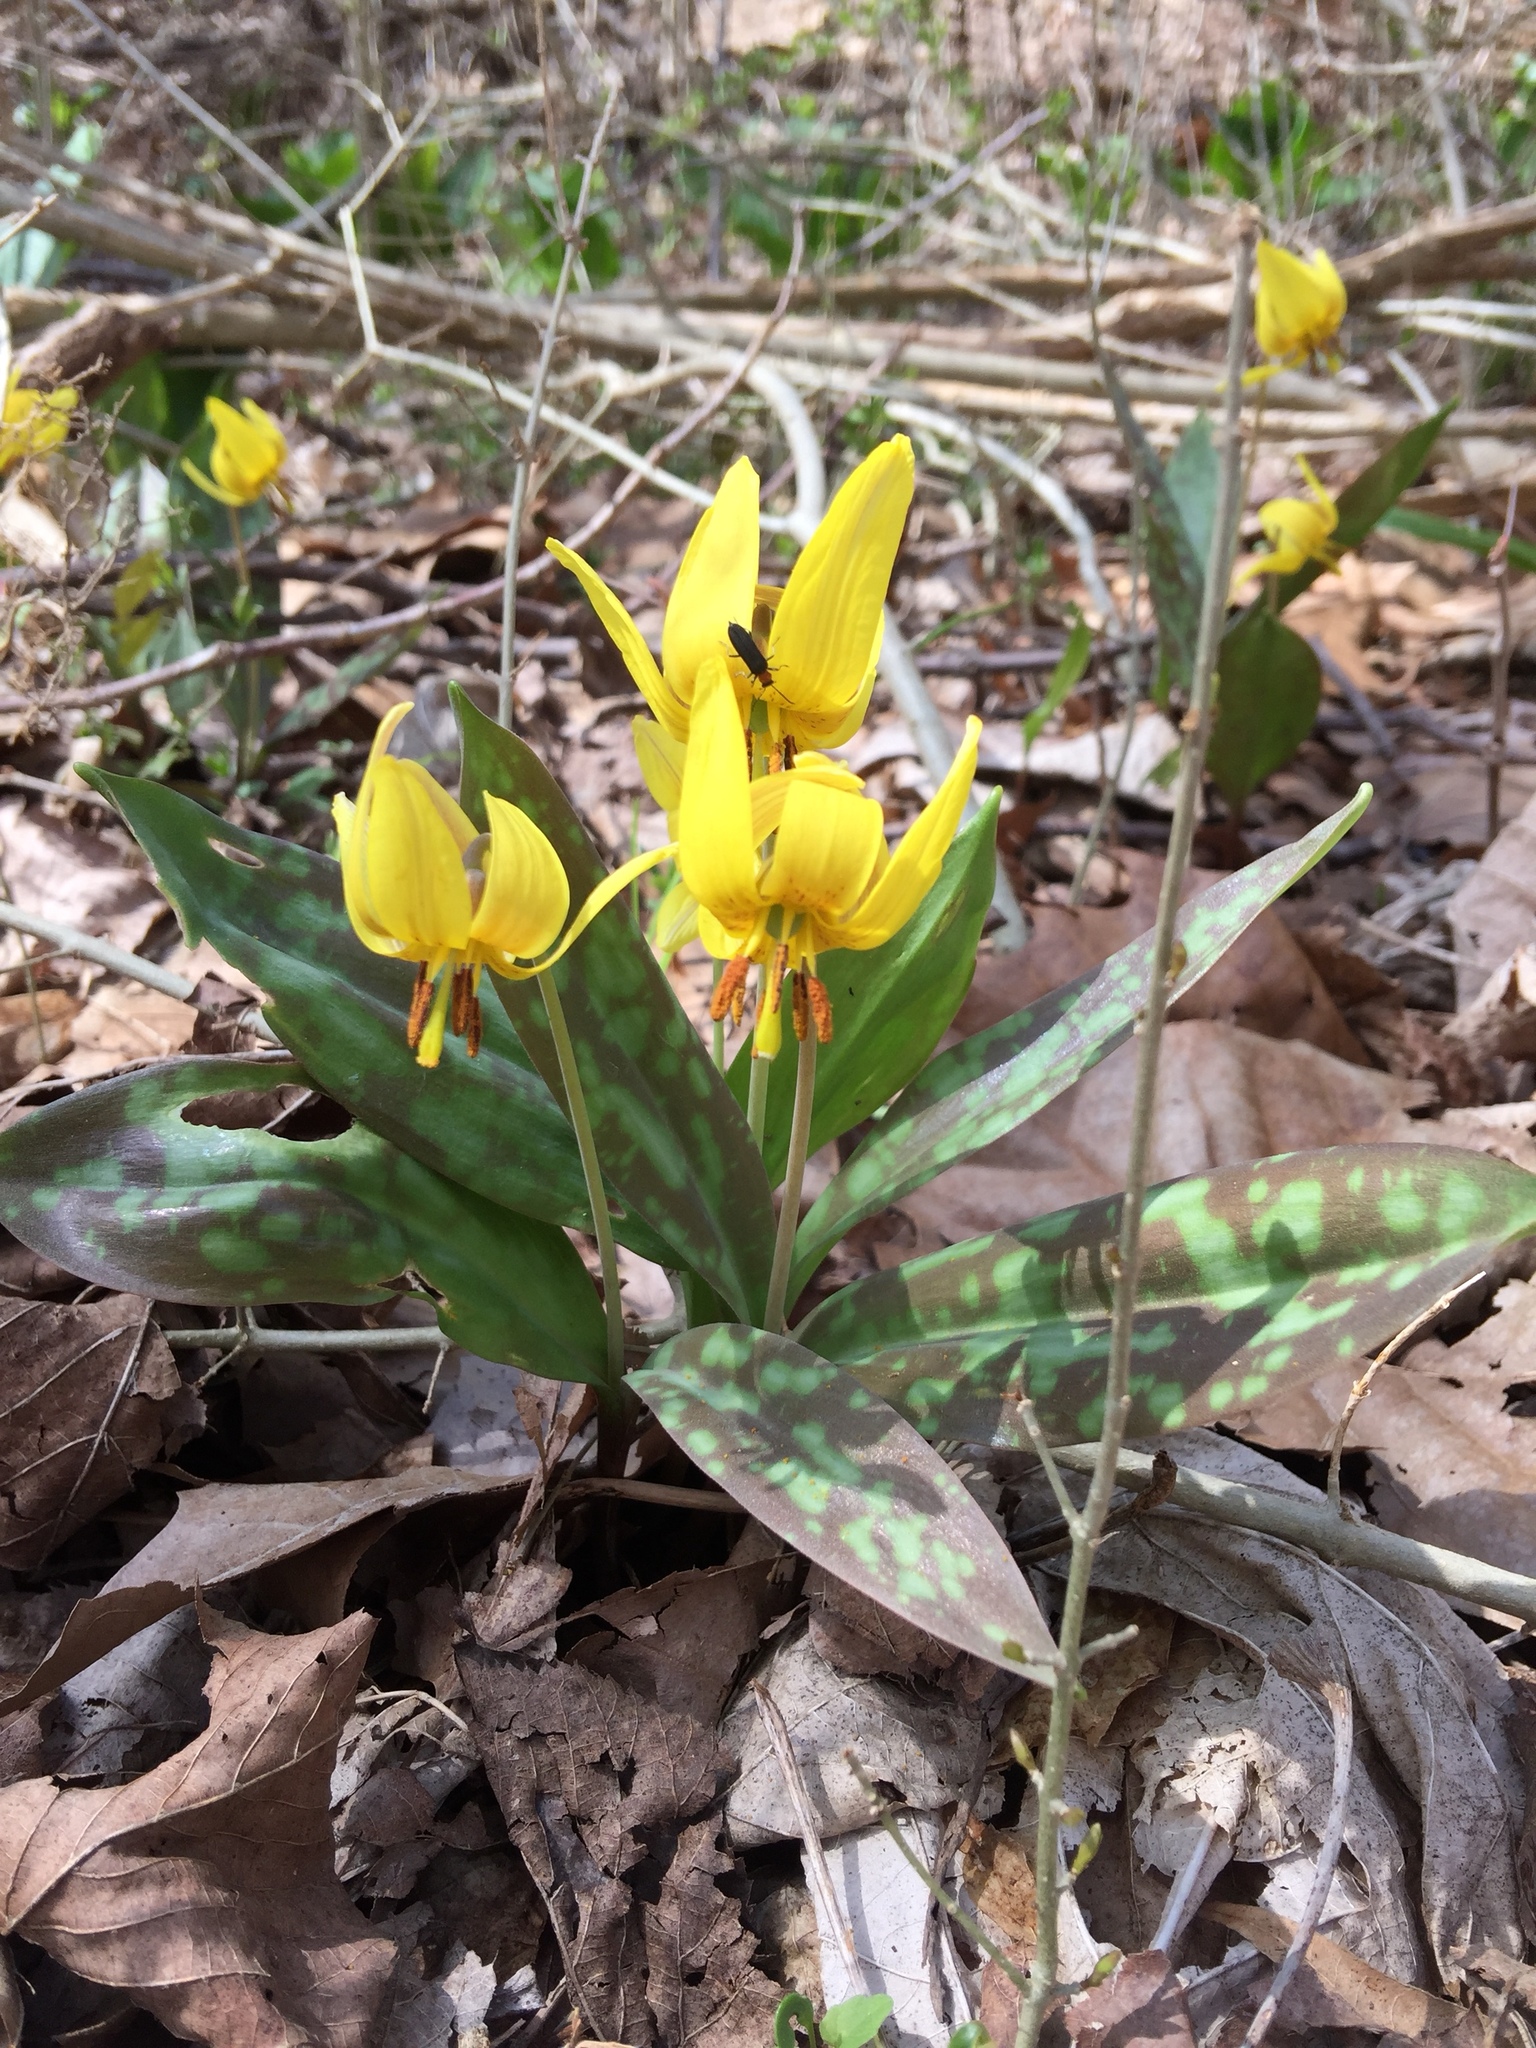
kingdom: Plantae
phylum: Tracheophyta
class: Liliopsida
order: Liliales
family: Liliaceae
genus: Erythronium
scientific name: Erythronium americanum
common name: Yellow adder's-tongue
